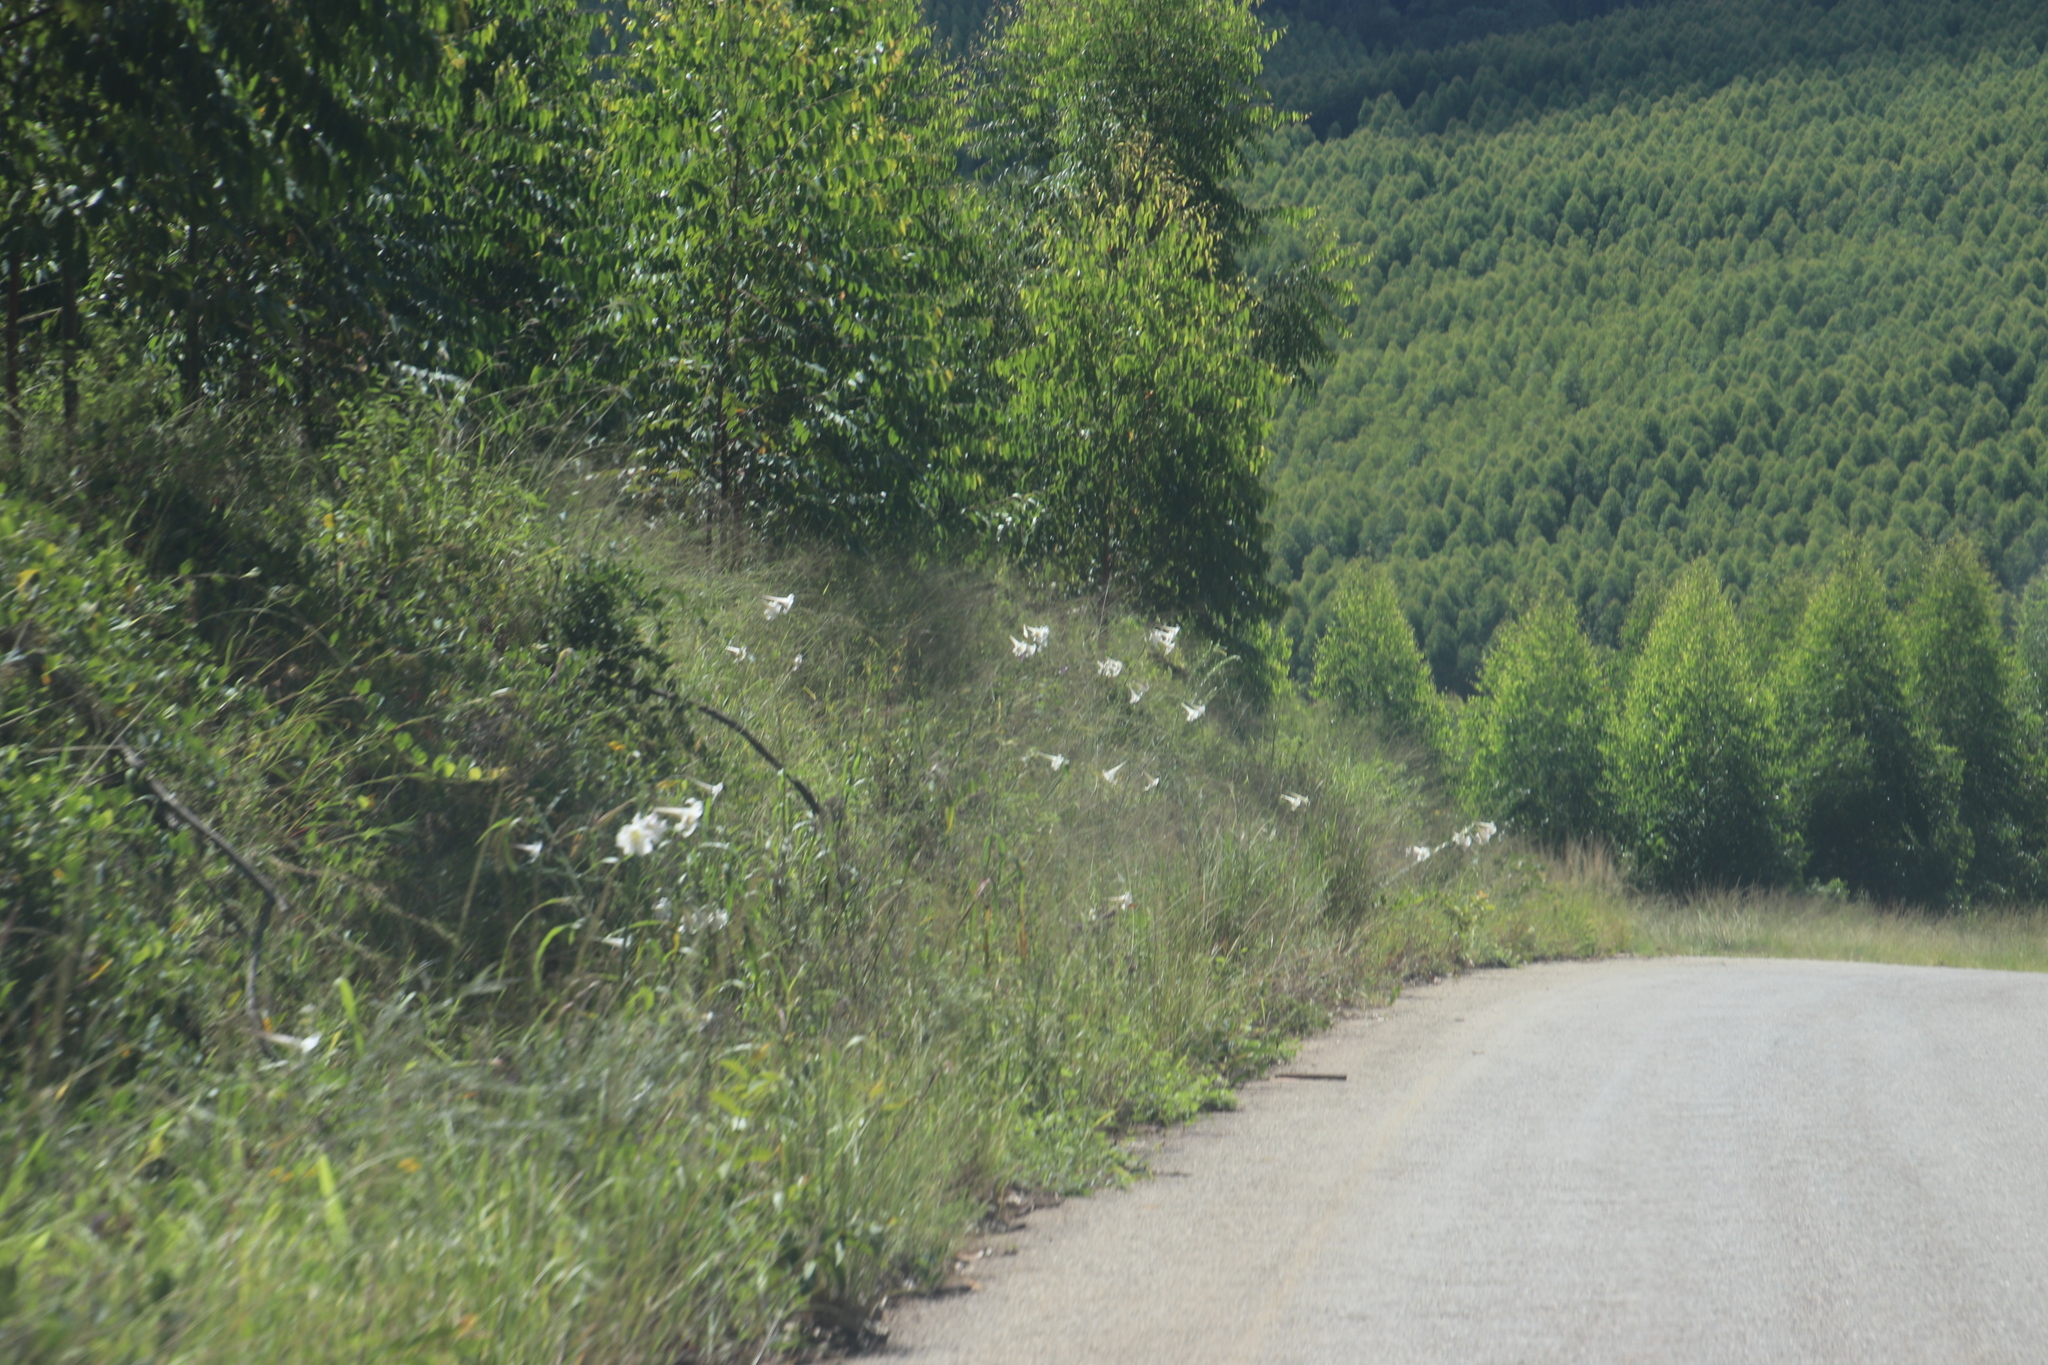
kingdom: Plantae
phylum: Tracheophyta
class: Liliopsida
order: Liliales
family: Liliaceae
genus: Lilium
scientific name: Lilium formosanum
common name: Formosa lily
